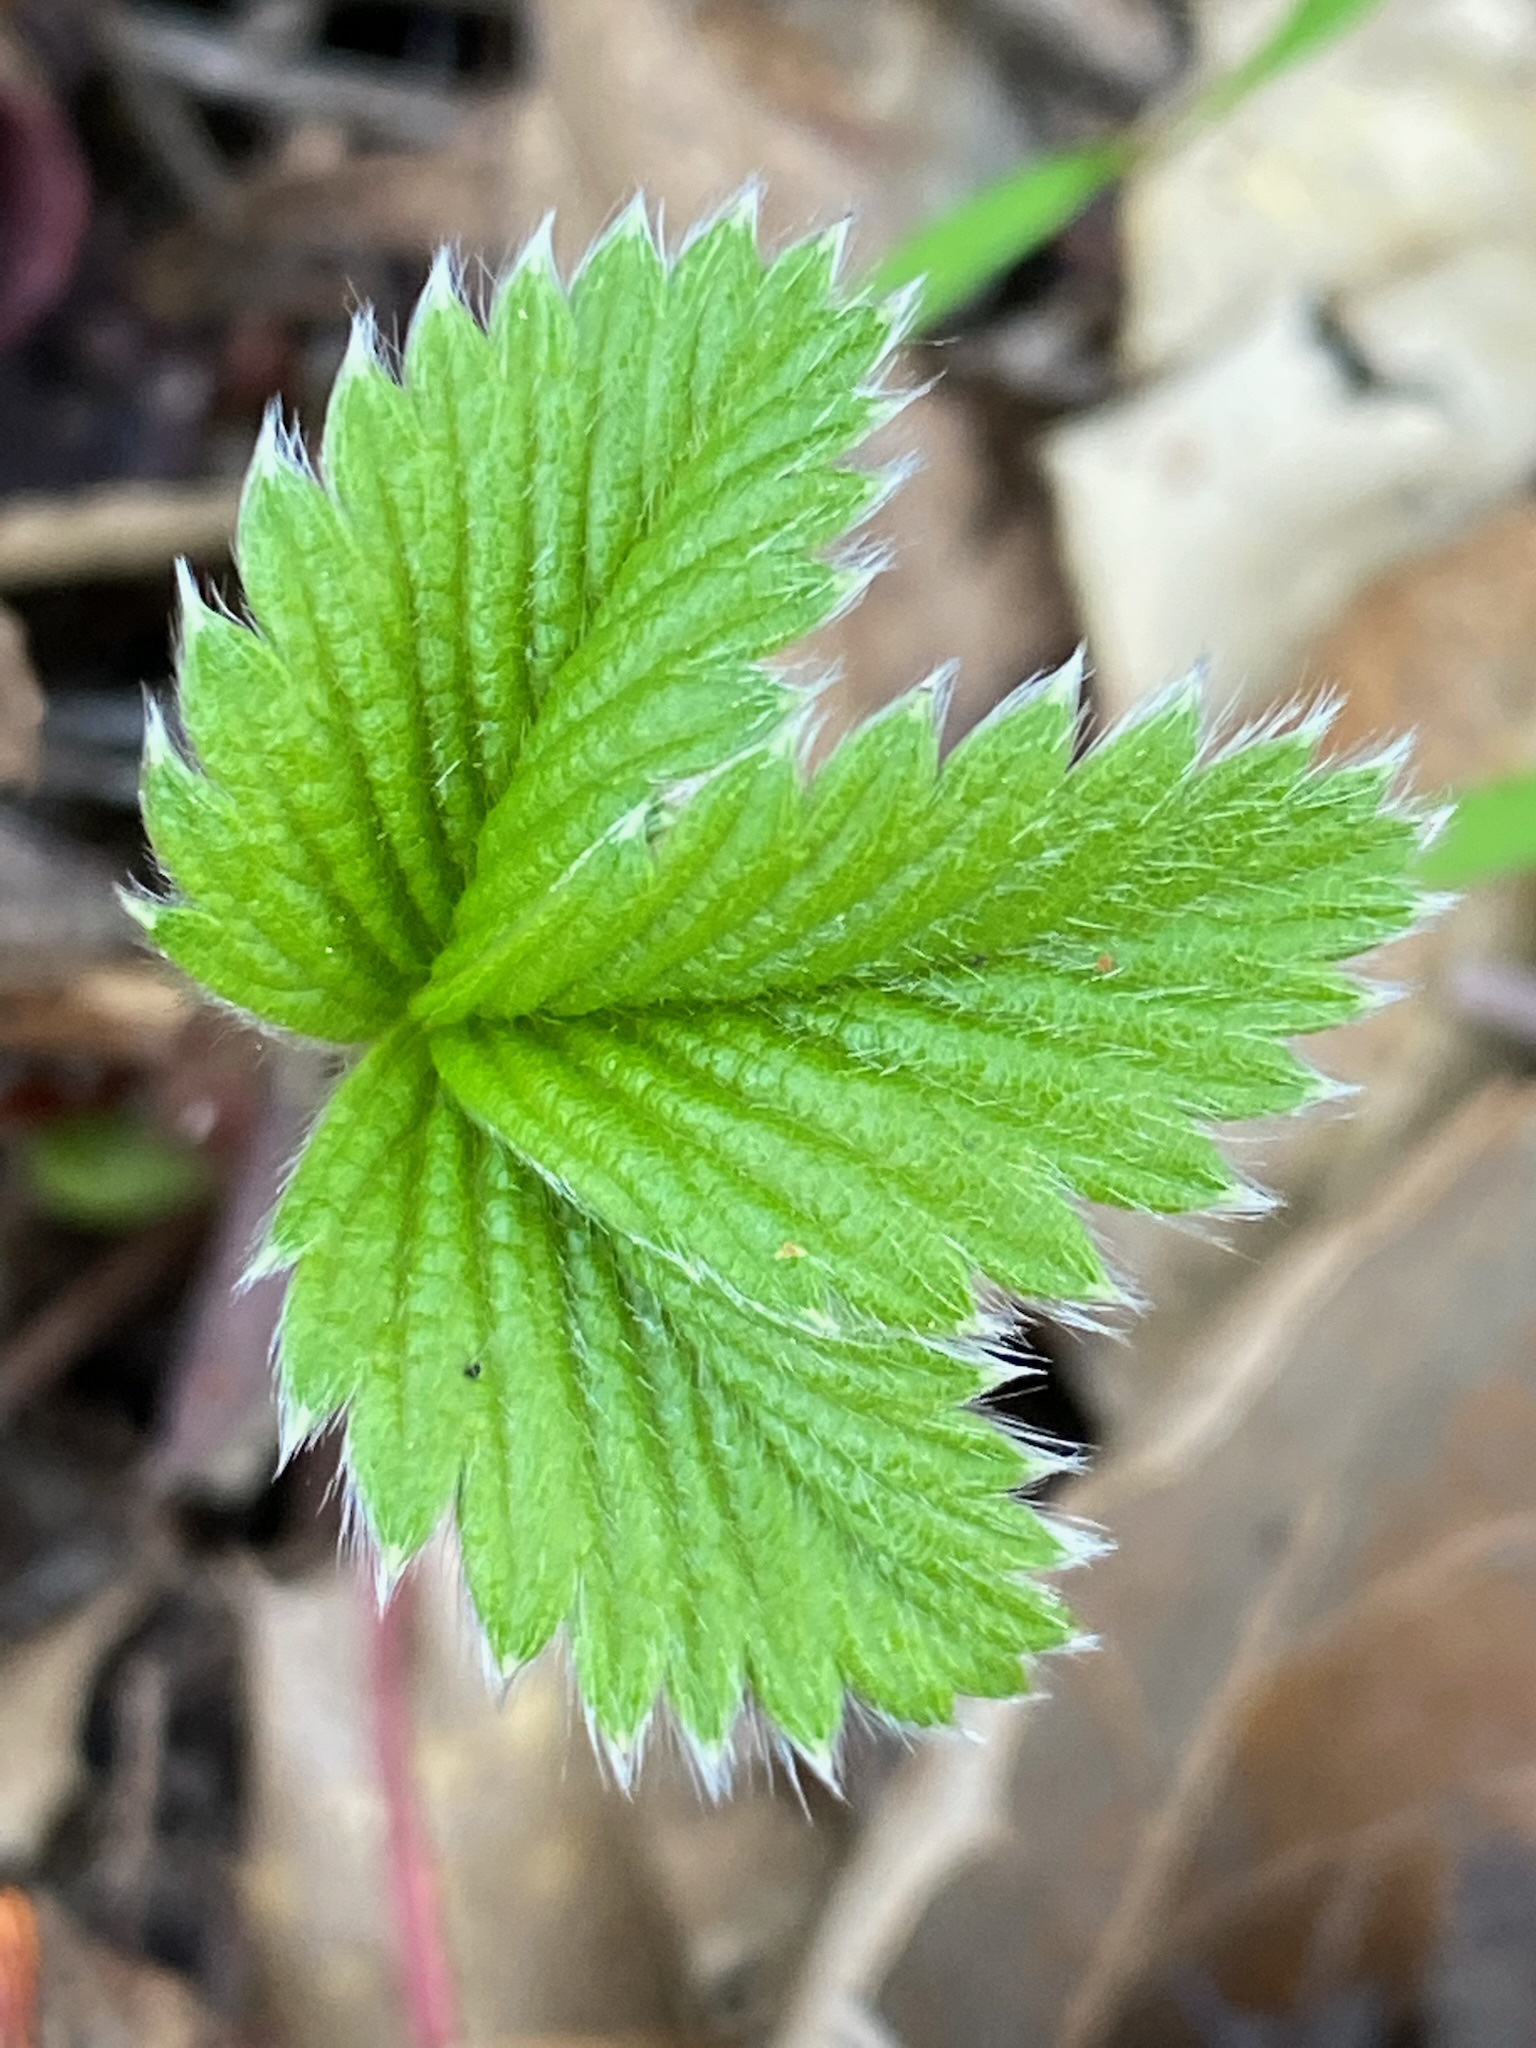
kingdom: Plantae
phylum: Tracheophyta
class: Magnoliopsida
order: Rosales
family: Rosaceae
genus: Fragaria
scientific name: Fragaria vesca
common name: Wild strawberry
